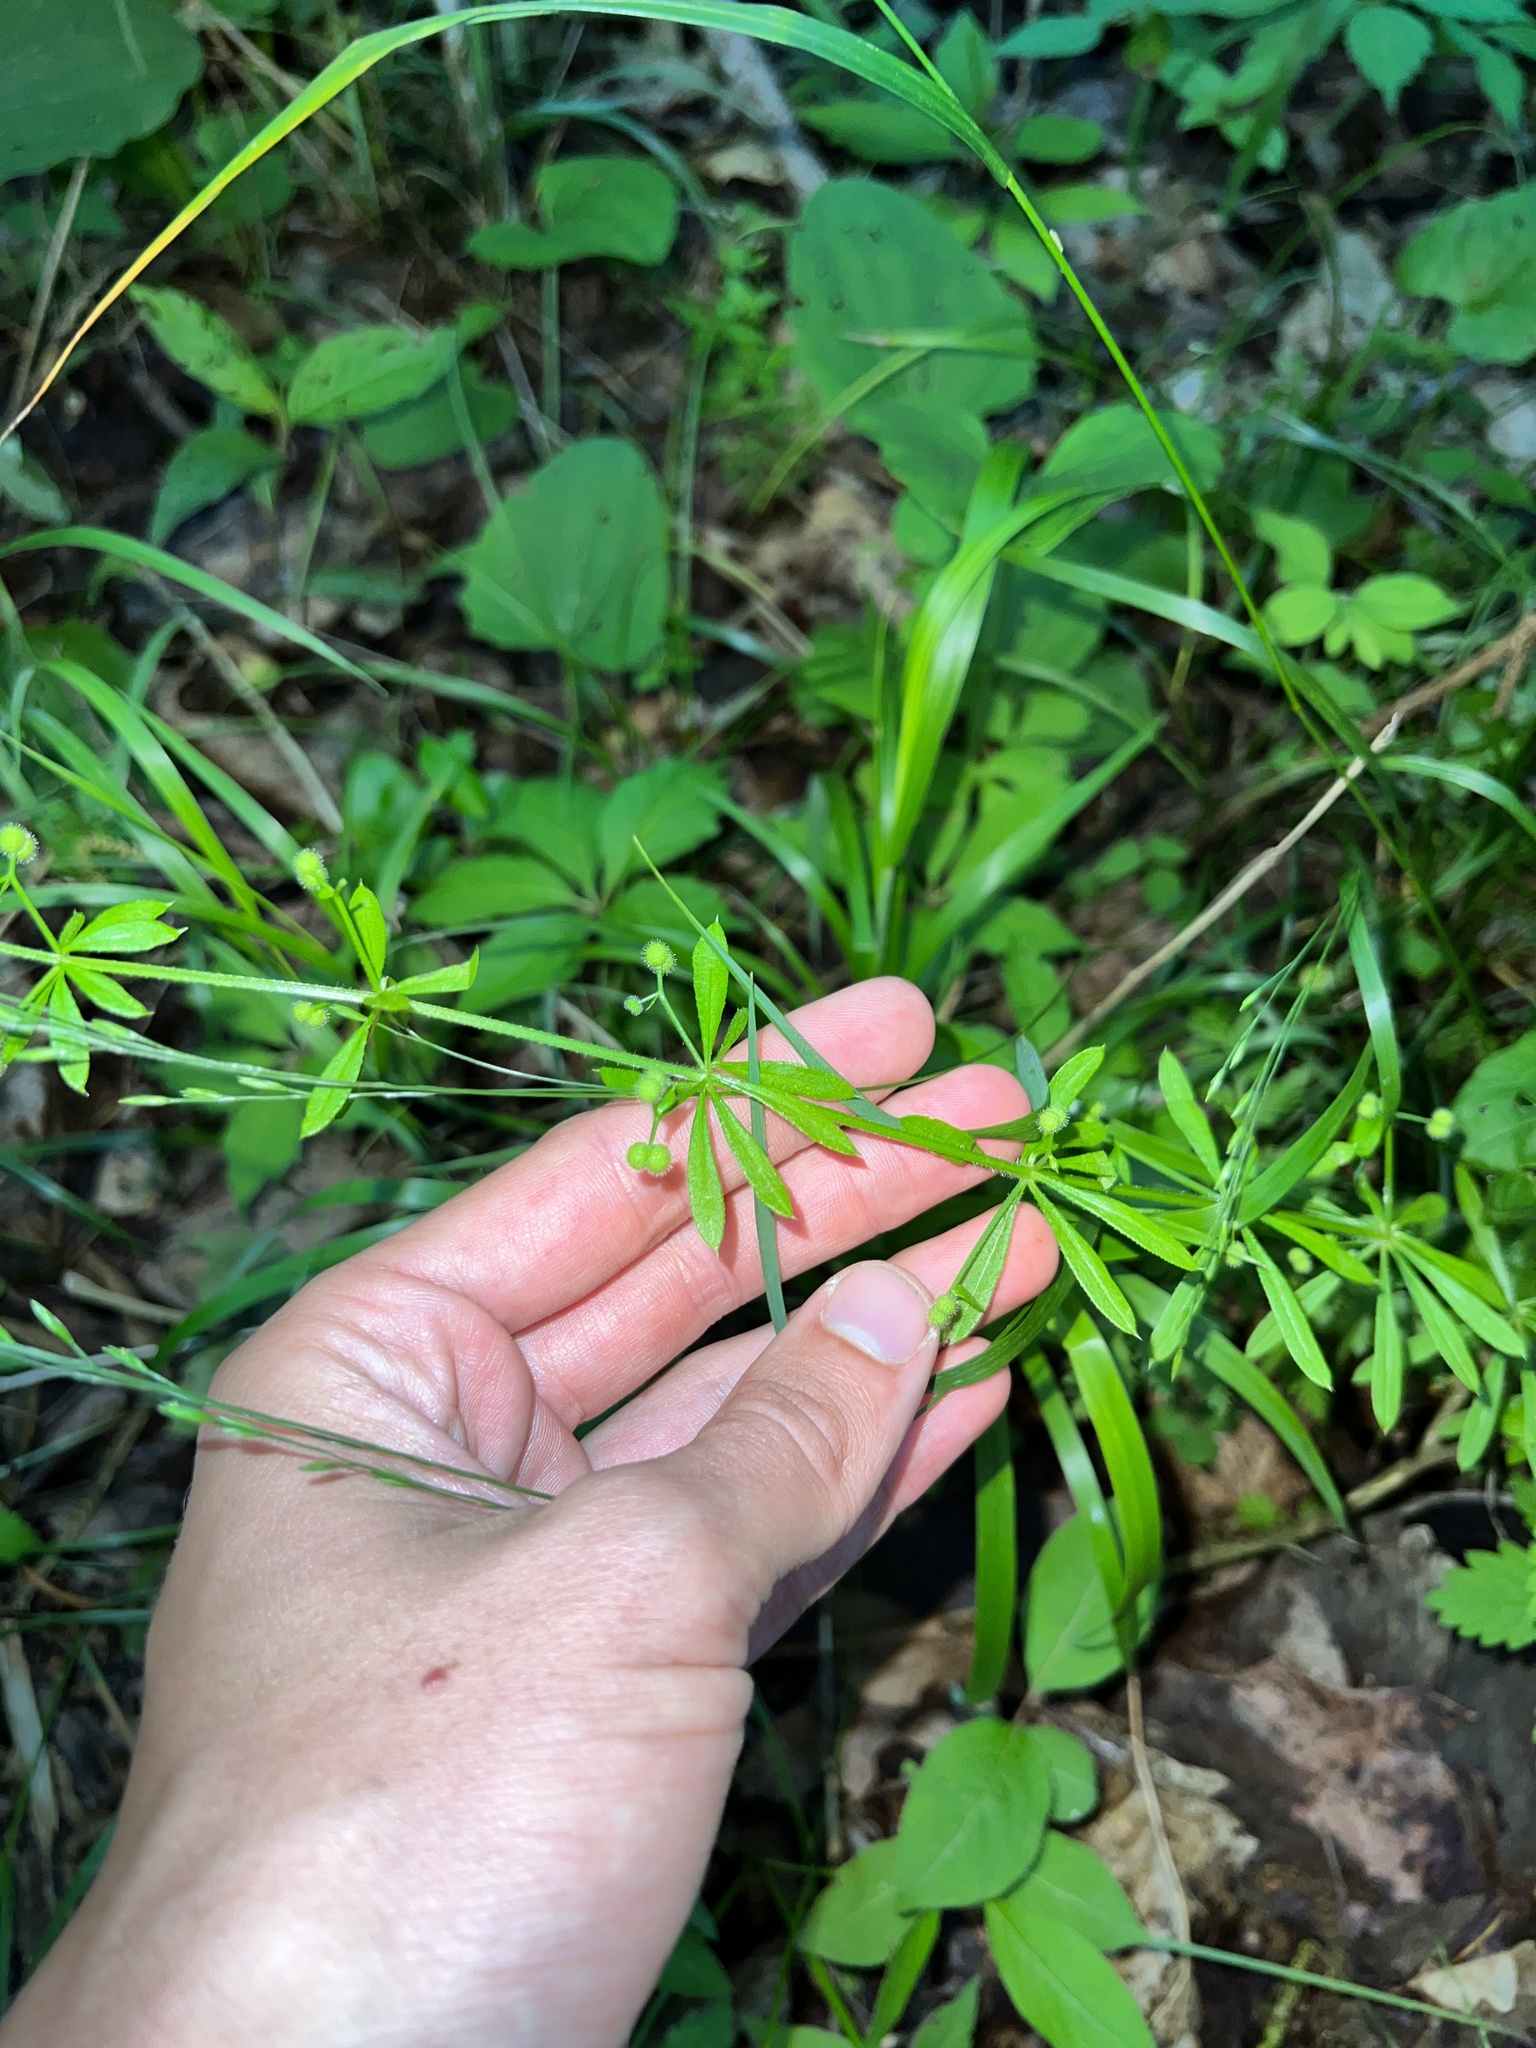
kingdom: Plantae
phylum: Tracheophyta
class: Magnoliopsida
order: Gentianales
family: Rubiaceae
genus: Galium
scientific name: Galium aparine
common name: Cleavers
